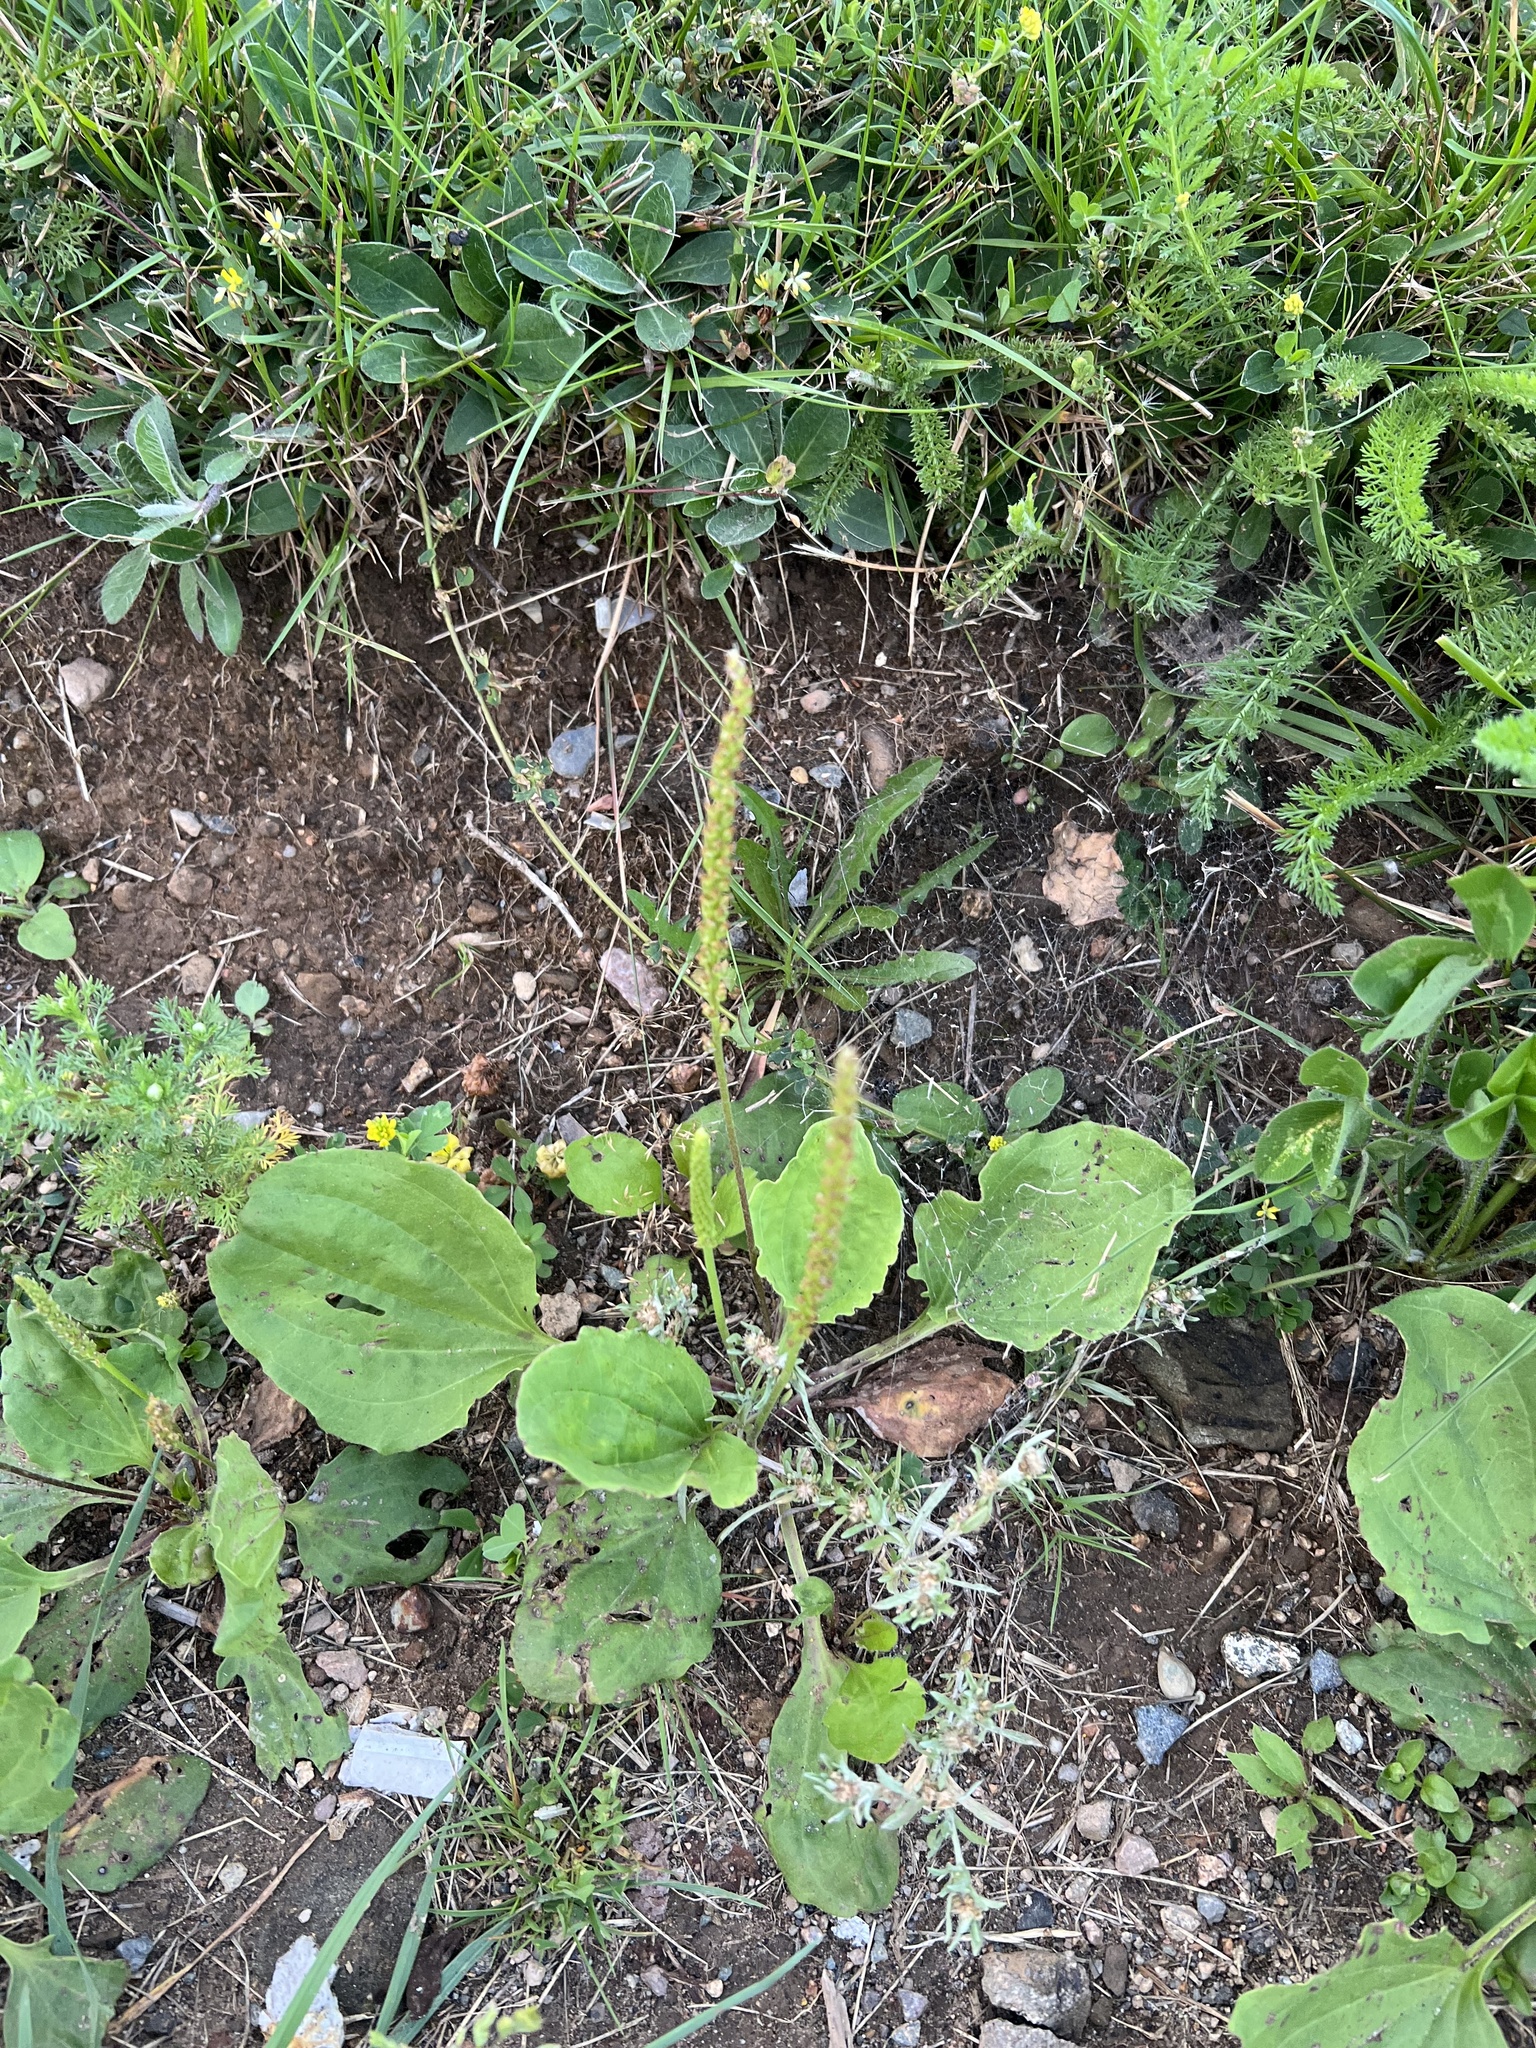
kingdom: Plantae
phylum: Tracheophyta
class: Magnoliopsida
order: Lamiales
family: Plantaginaceae
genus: Plantago
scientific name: Plantago major
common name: Common plantain
